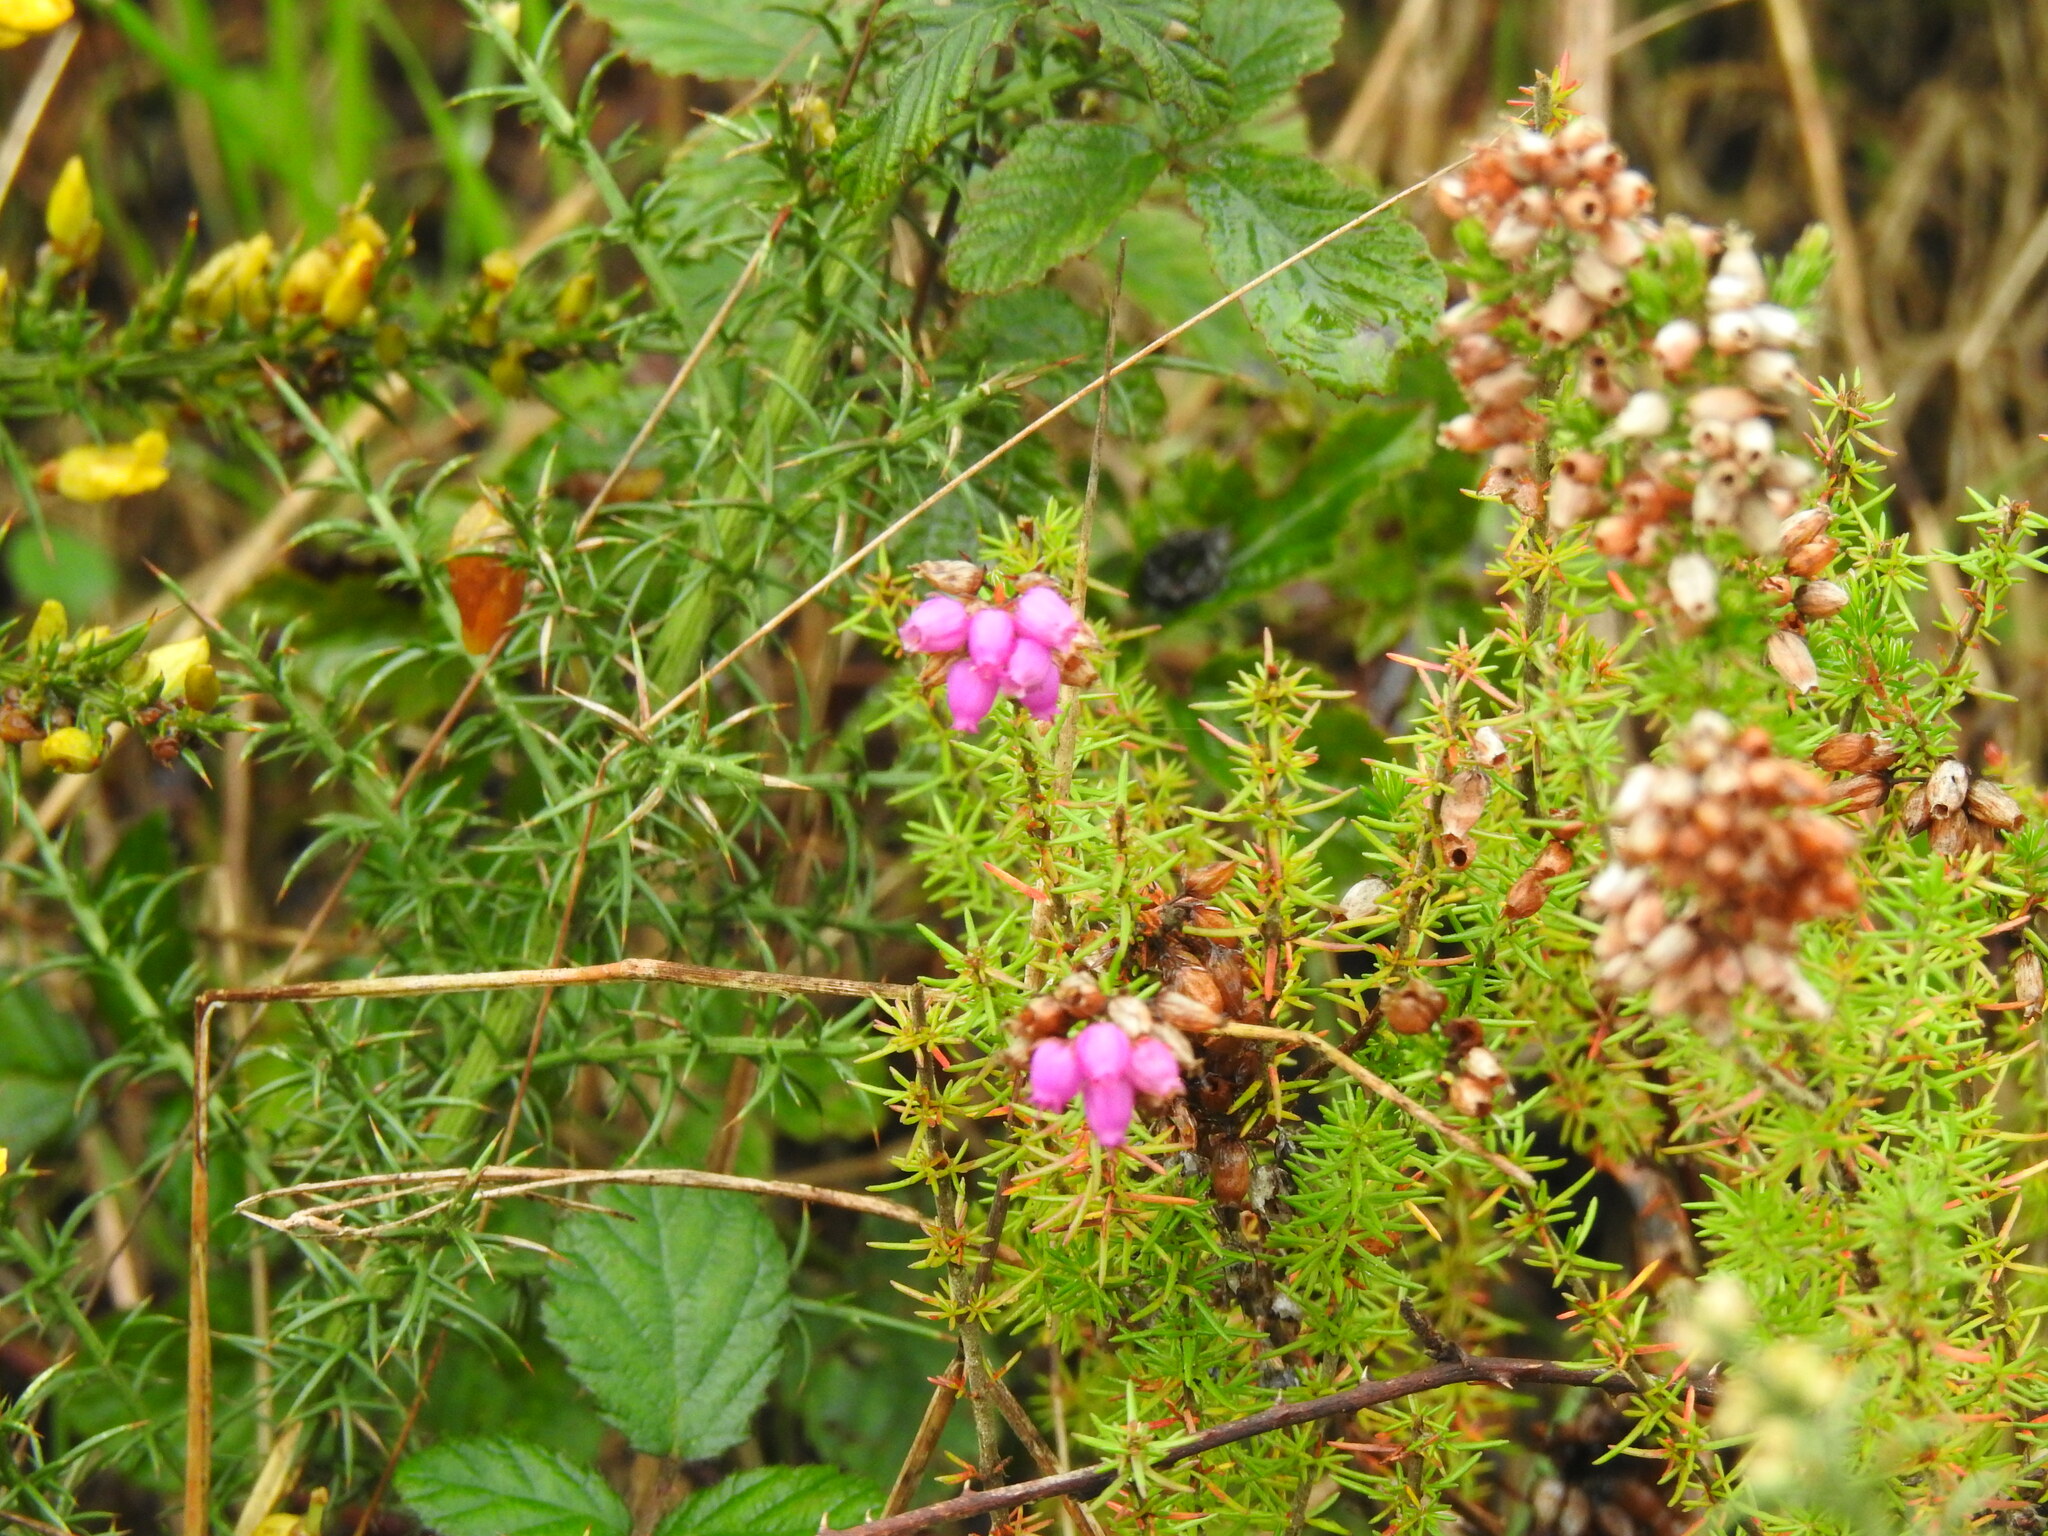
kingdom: Plantae
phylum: Tracheophyta
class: Magnoliopsida
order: Ericales
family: Ericaceae
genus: Erica
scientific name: Erica cinerea
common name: Bell heather
